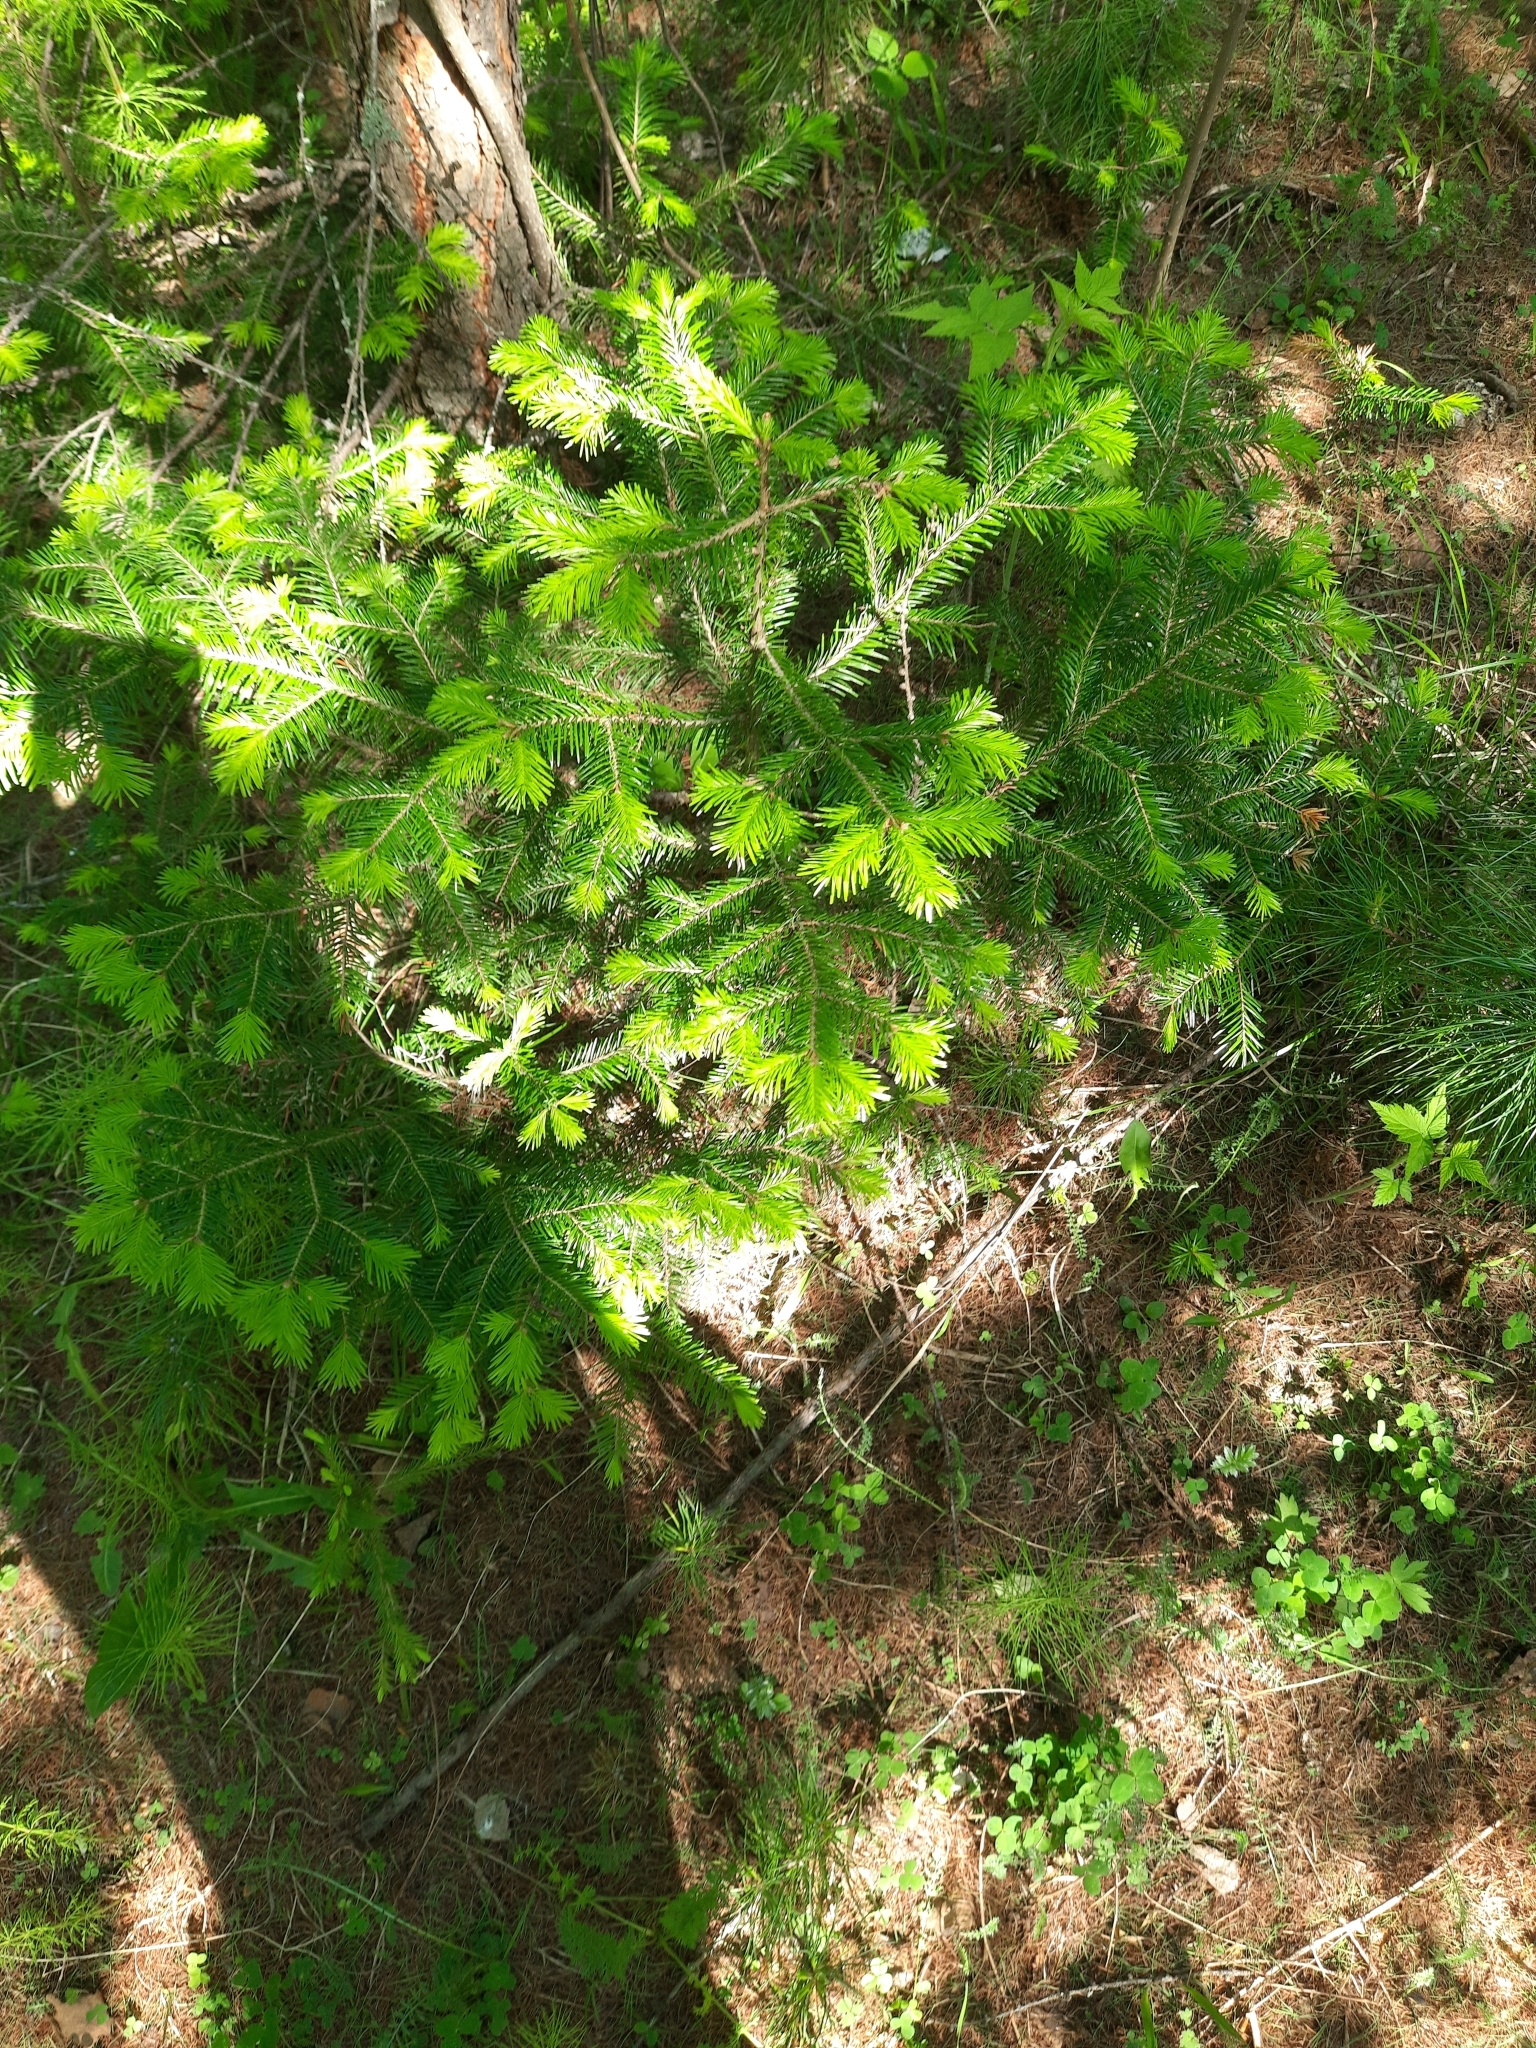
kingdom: Plantae
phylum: Tracheophyta
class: Pinopsida
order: Pinales
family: Pinaceae
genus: Abies
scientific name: Abies sibirica
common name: Siberian fir
